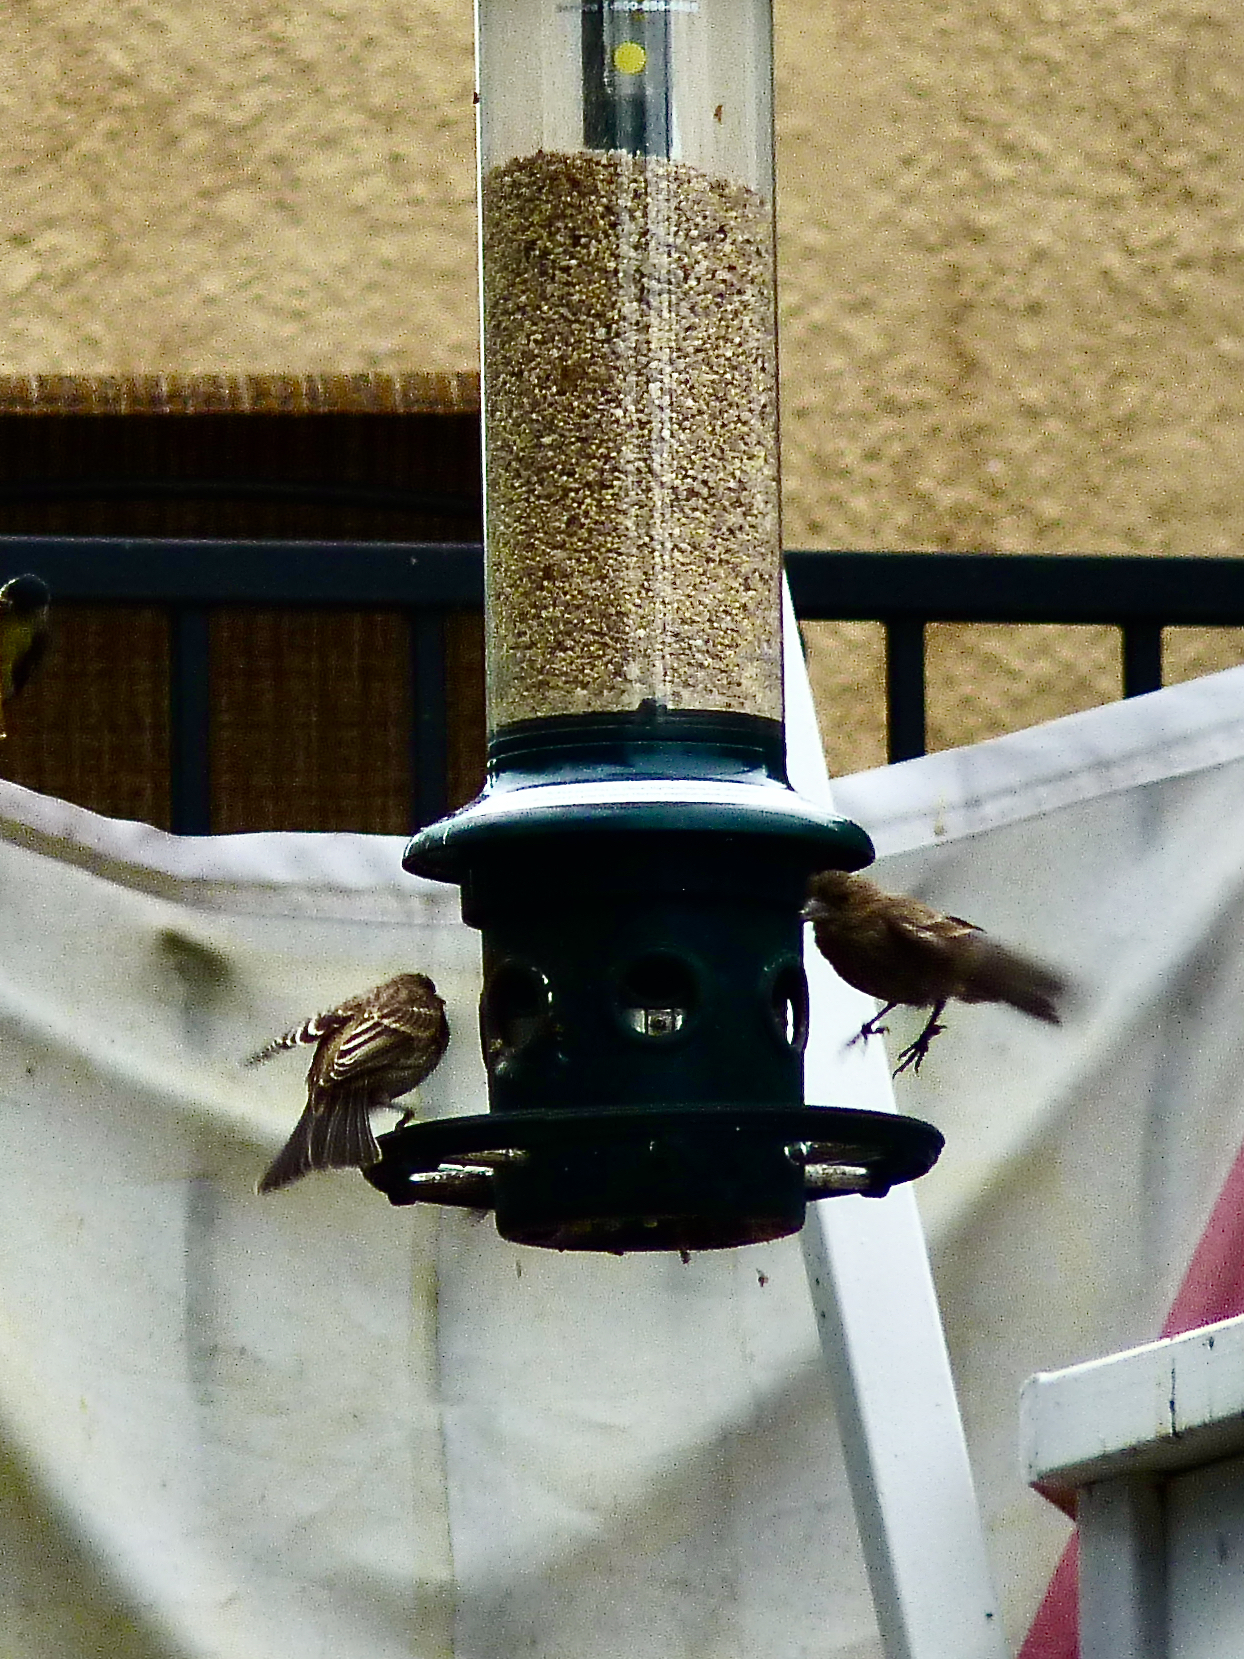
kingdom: Animalia
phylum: Chordata
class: Aves
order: Passeriformes
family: Fringillidae
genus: Haemorhous
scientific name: Haemorhous mexicanus
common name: House finch
